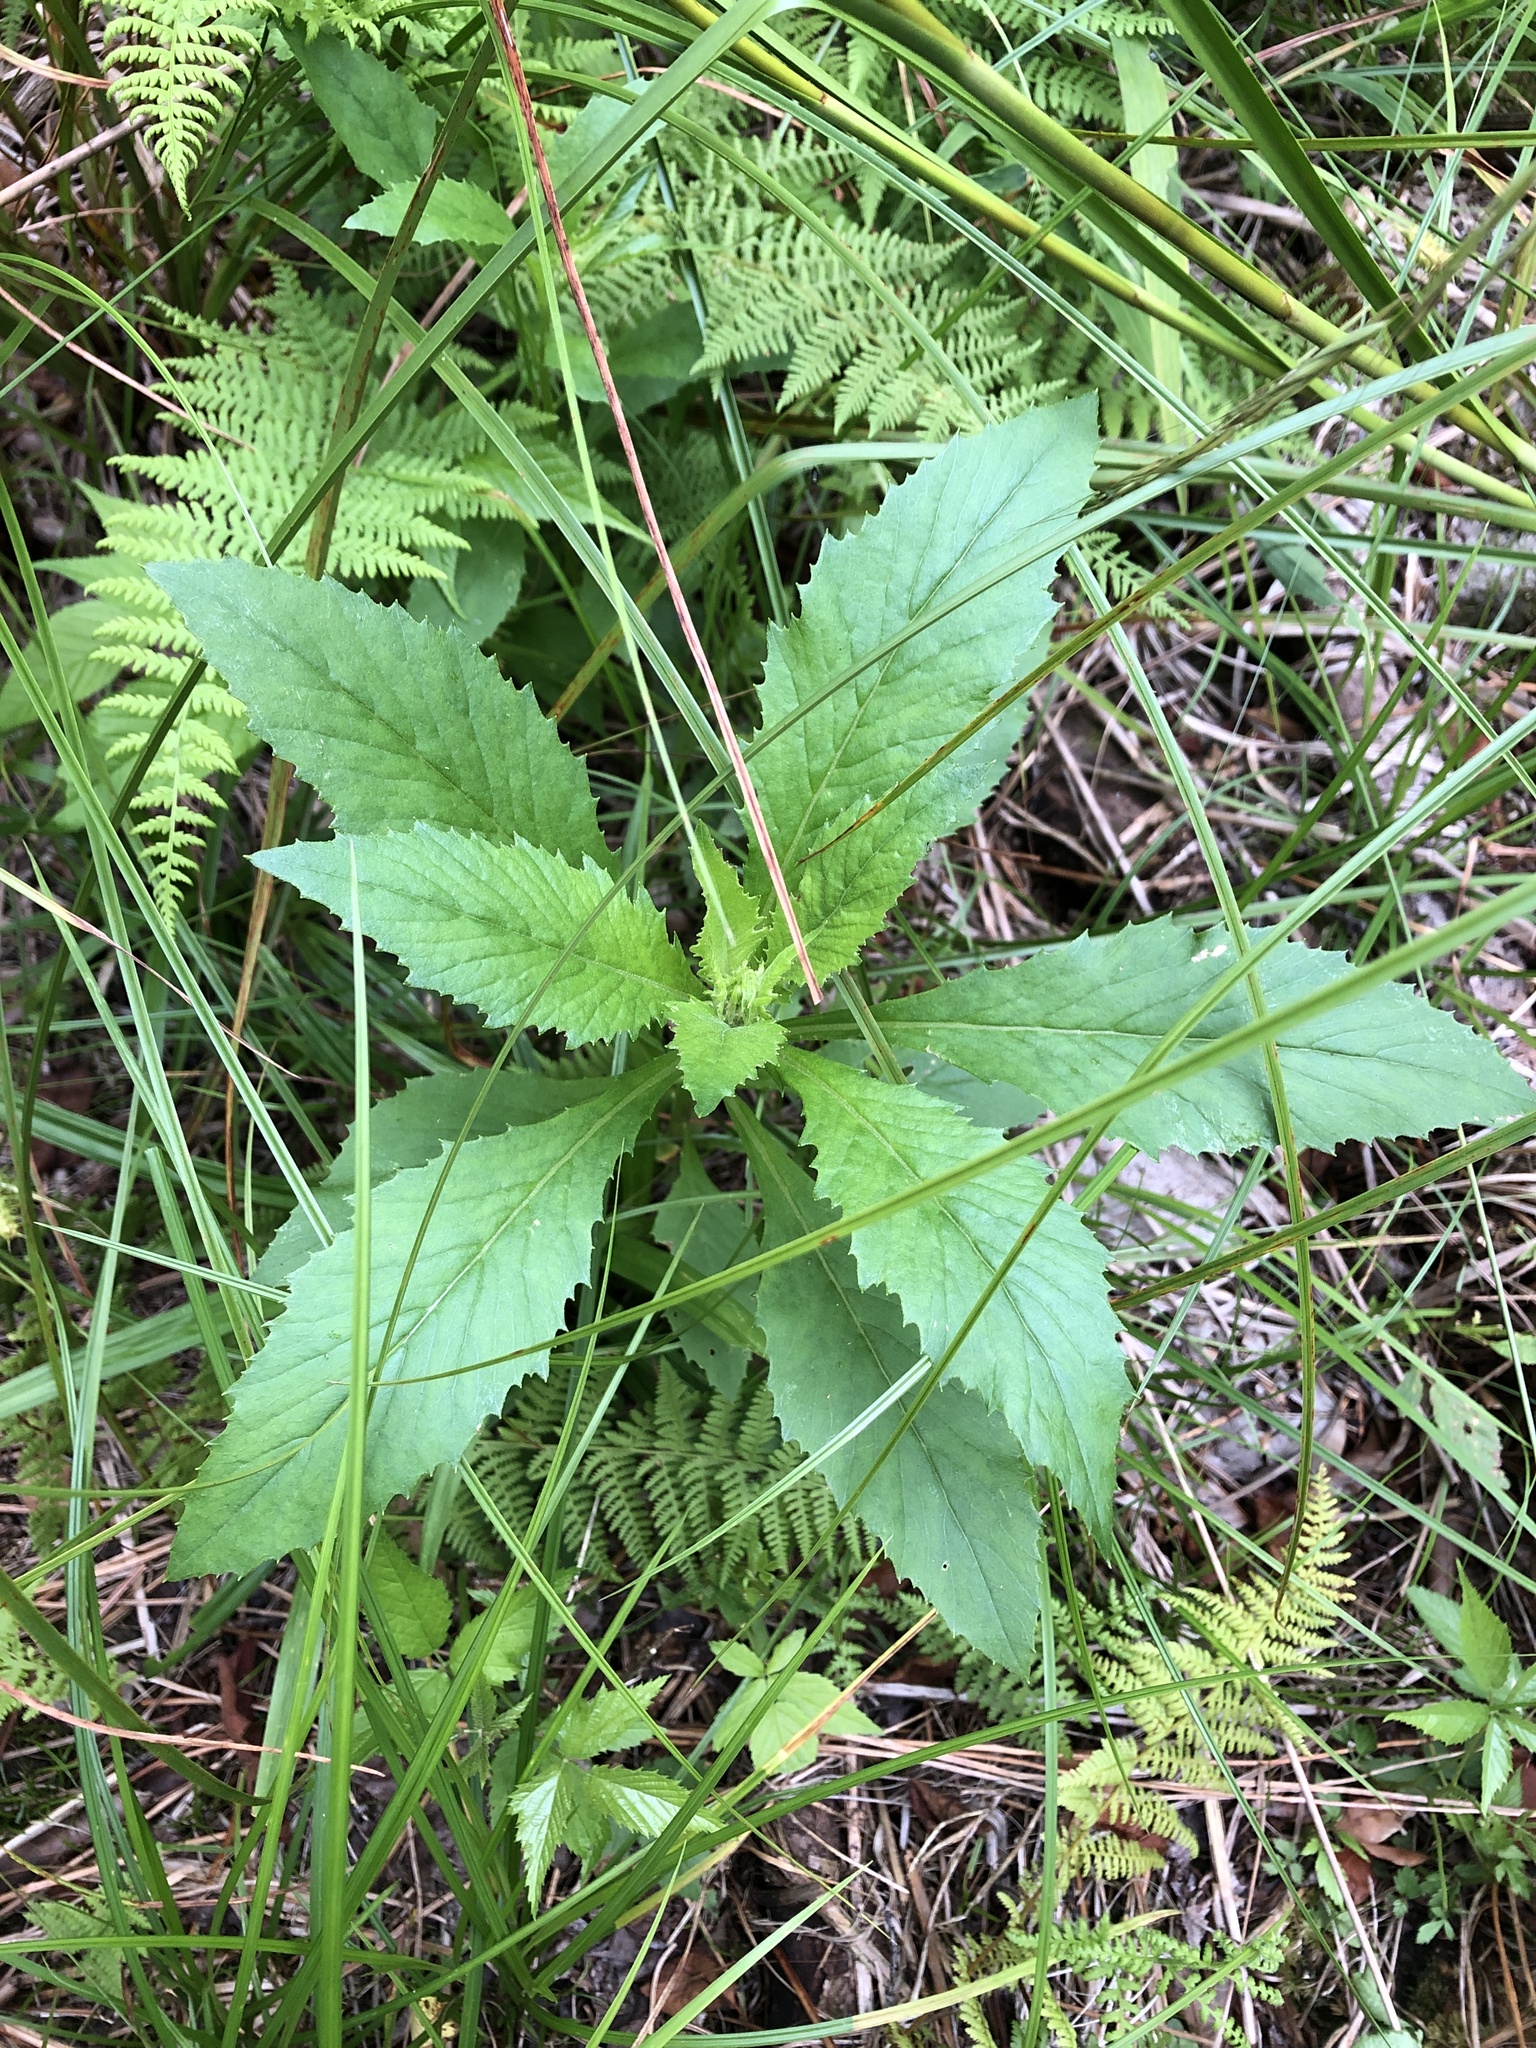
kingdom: Plantae
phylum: Tracheophyta
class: Magnoliopsida
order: Asterales
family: Asteraceae
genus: Erechtites
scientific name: Erechtites hieraciifolius
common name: American burnweed
